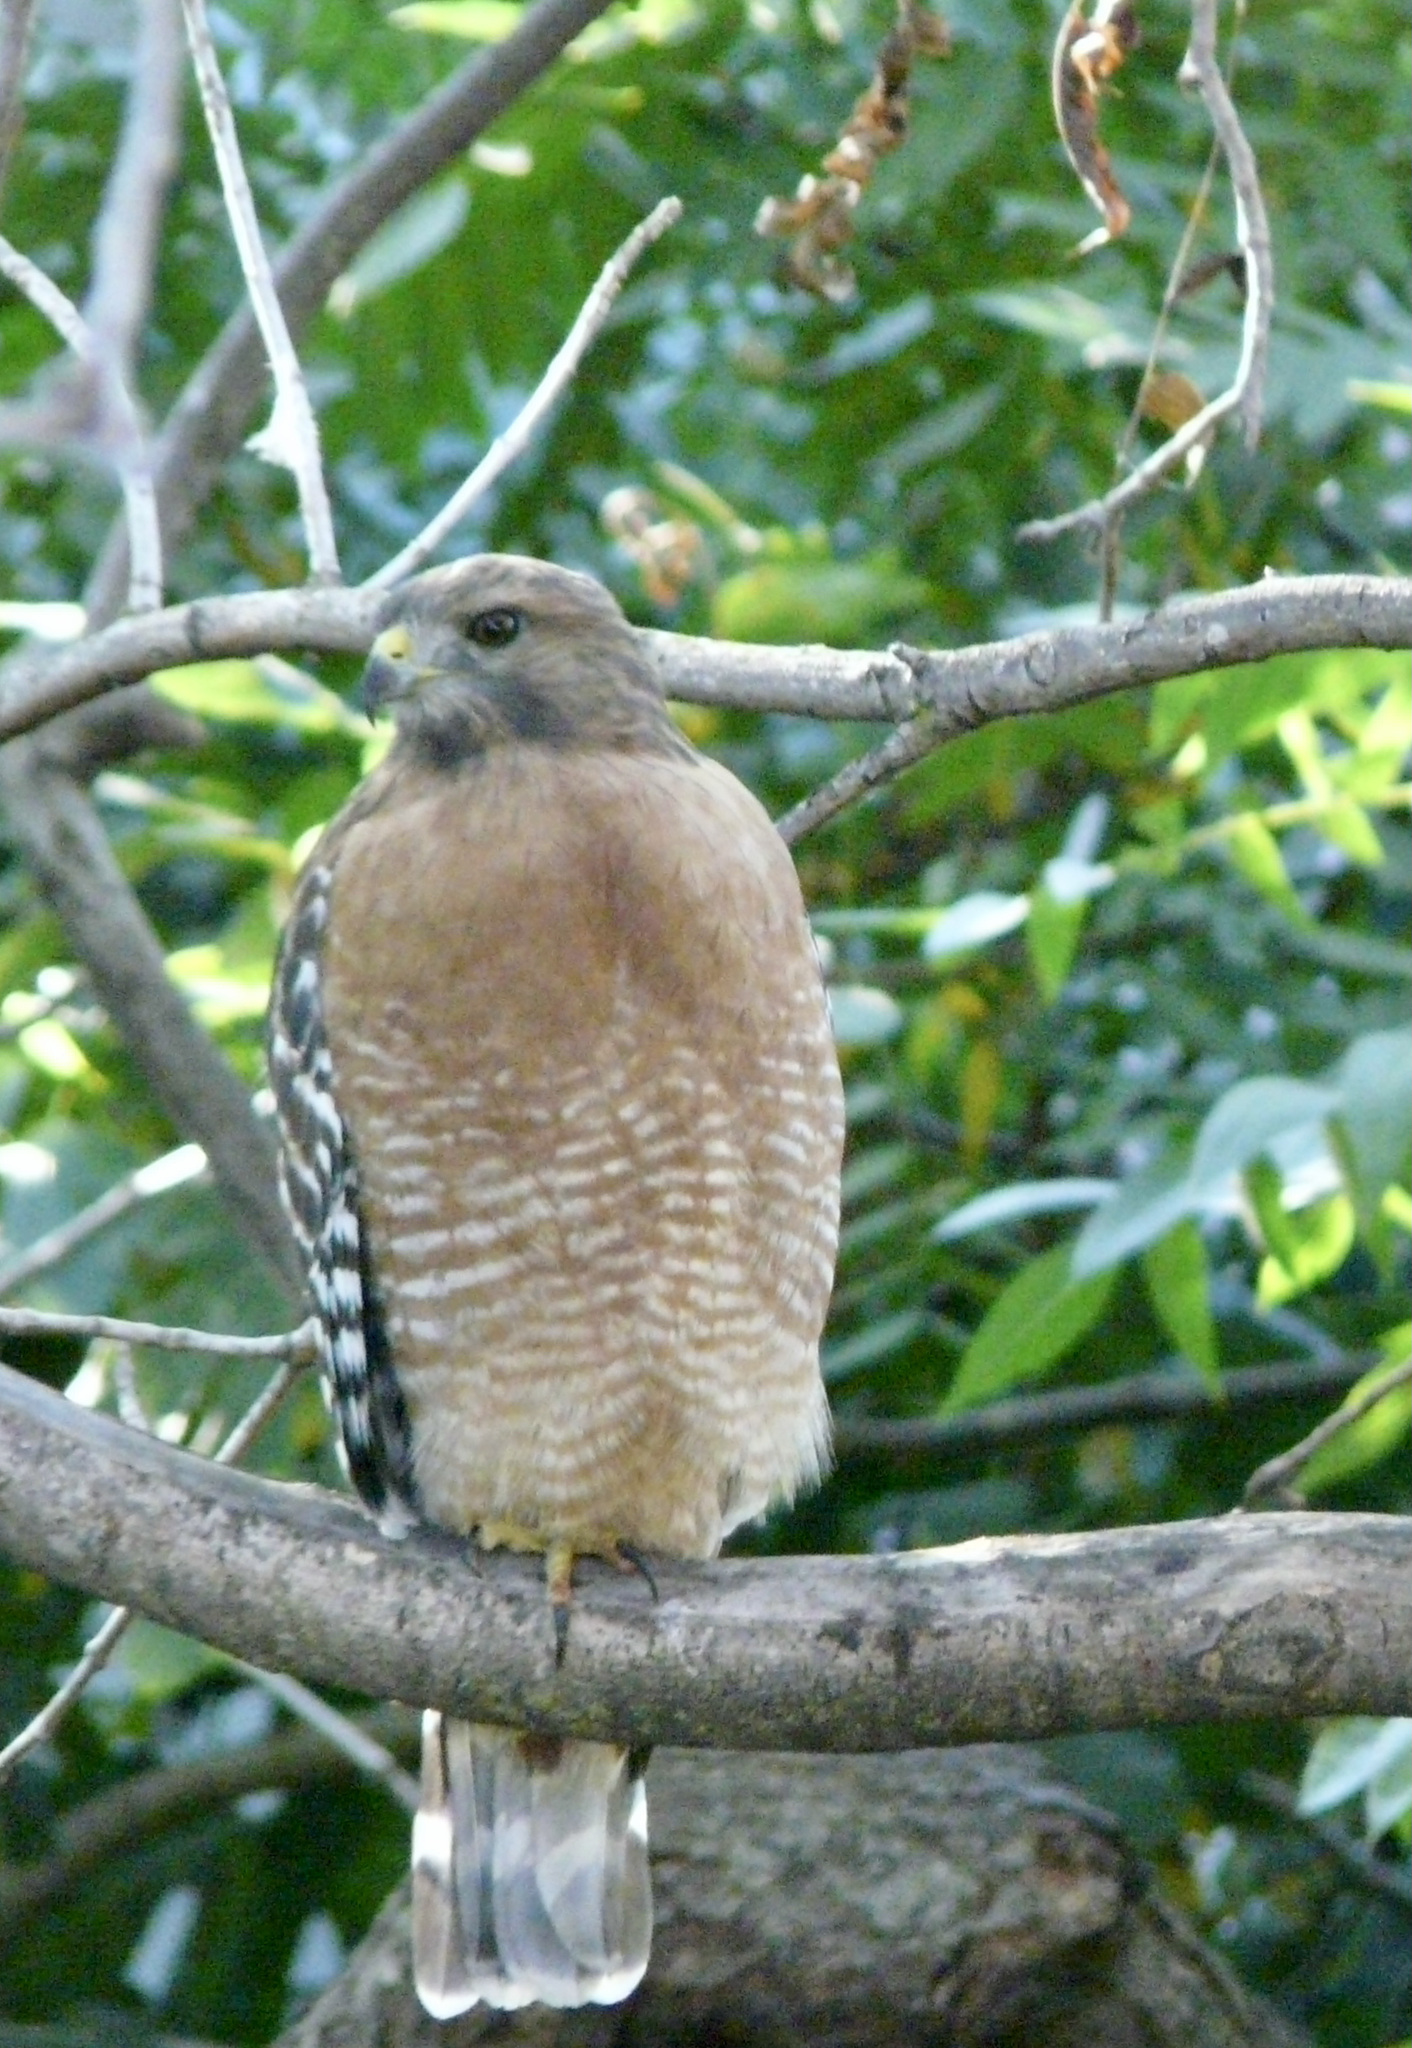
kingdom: Animalia
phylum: Chordata
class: Aves
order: Accipitriformes
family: Accipitridae
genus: Buteo
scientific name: Buteo lineatus
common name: Red-shouldered hawk
